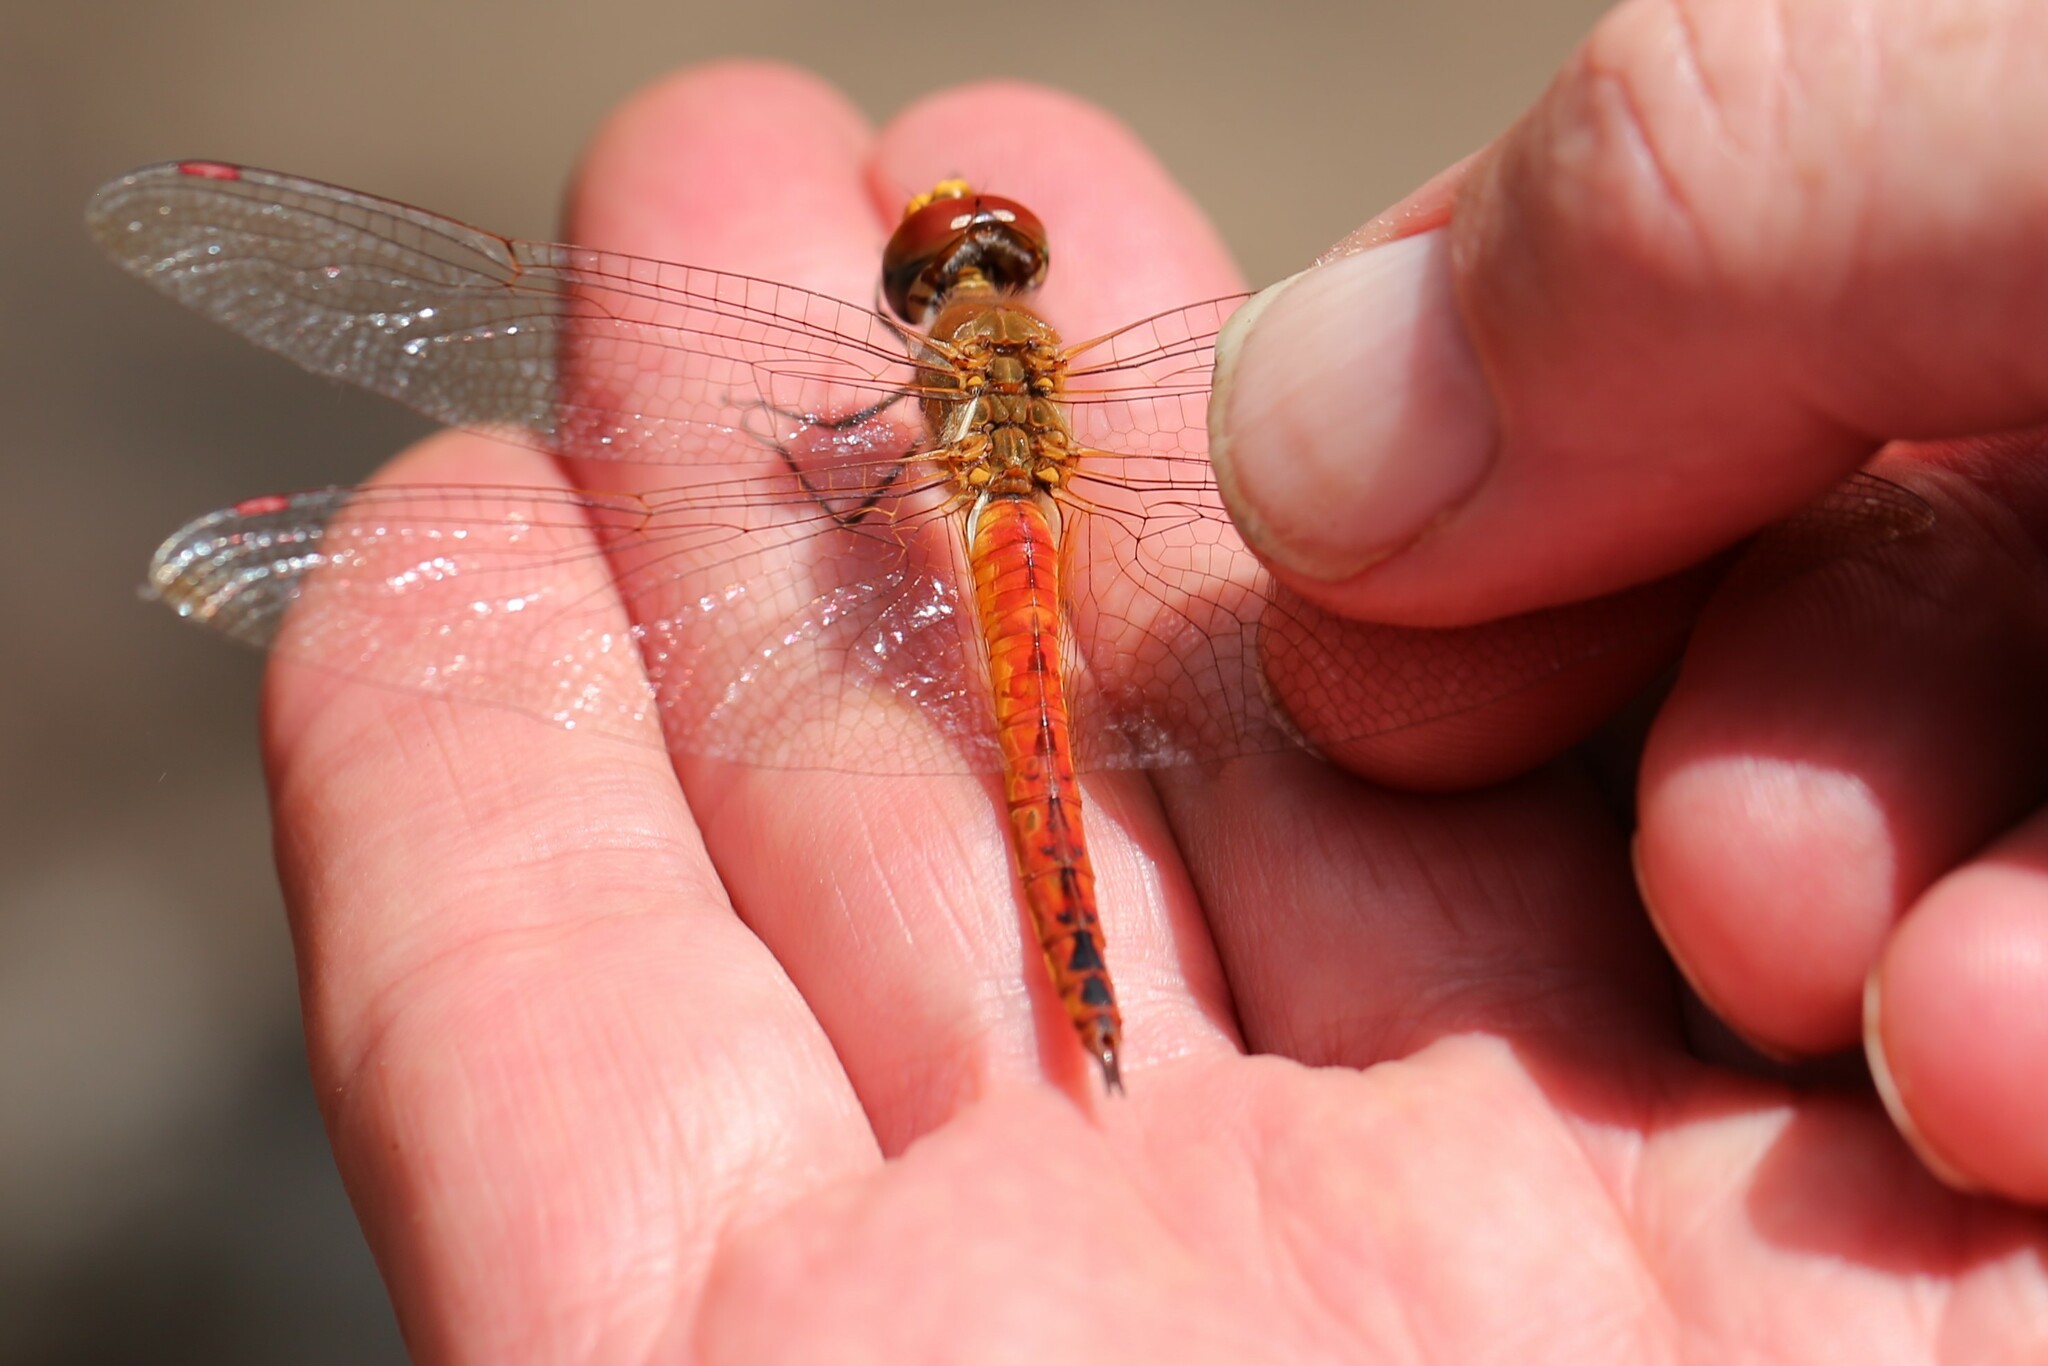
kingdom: Animalia
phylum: Arthropoda
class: Insecta
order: Odonata
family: Libellulidae
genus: Pantala
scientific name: Pantala flavescens
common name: Wandering glider
